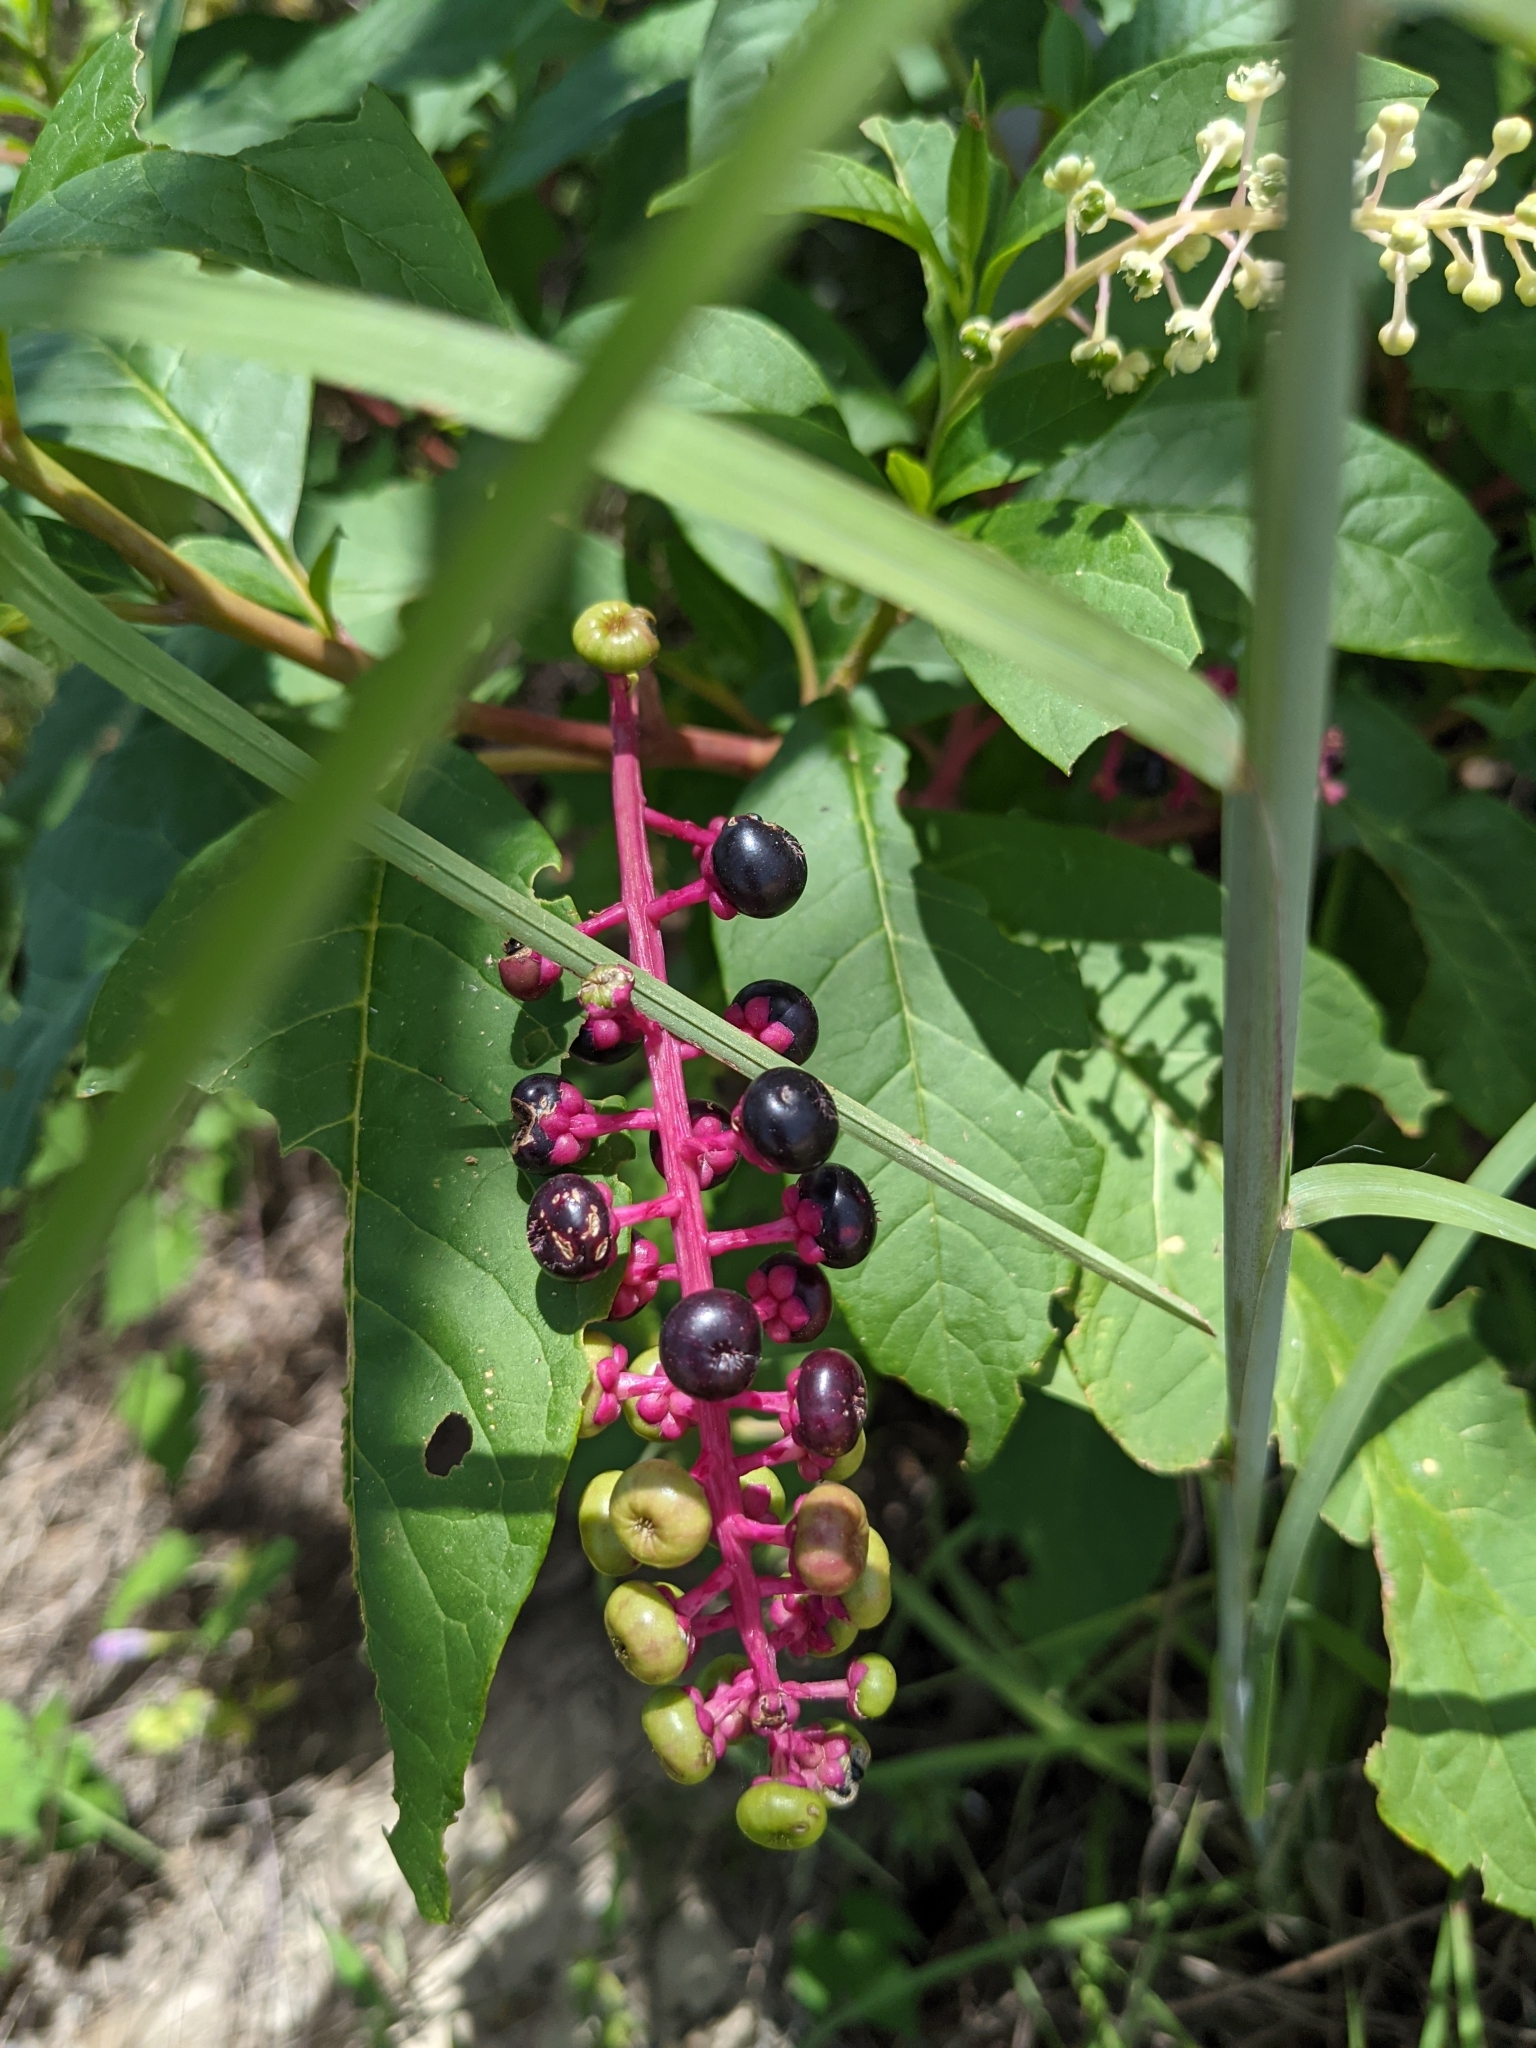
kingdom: Plantae
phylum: Tracheophyta
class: Magnoliopsida
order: Caryophyllales
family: Phytolaccaceae
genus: Phytolacca
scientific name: Phytolacca americana
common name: American pokeweed
